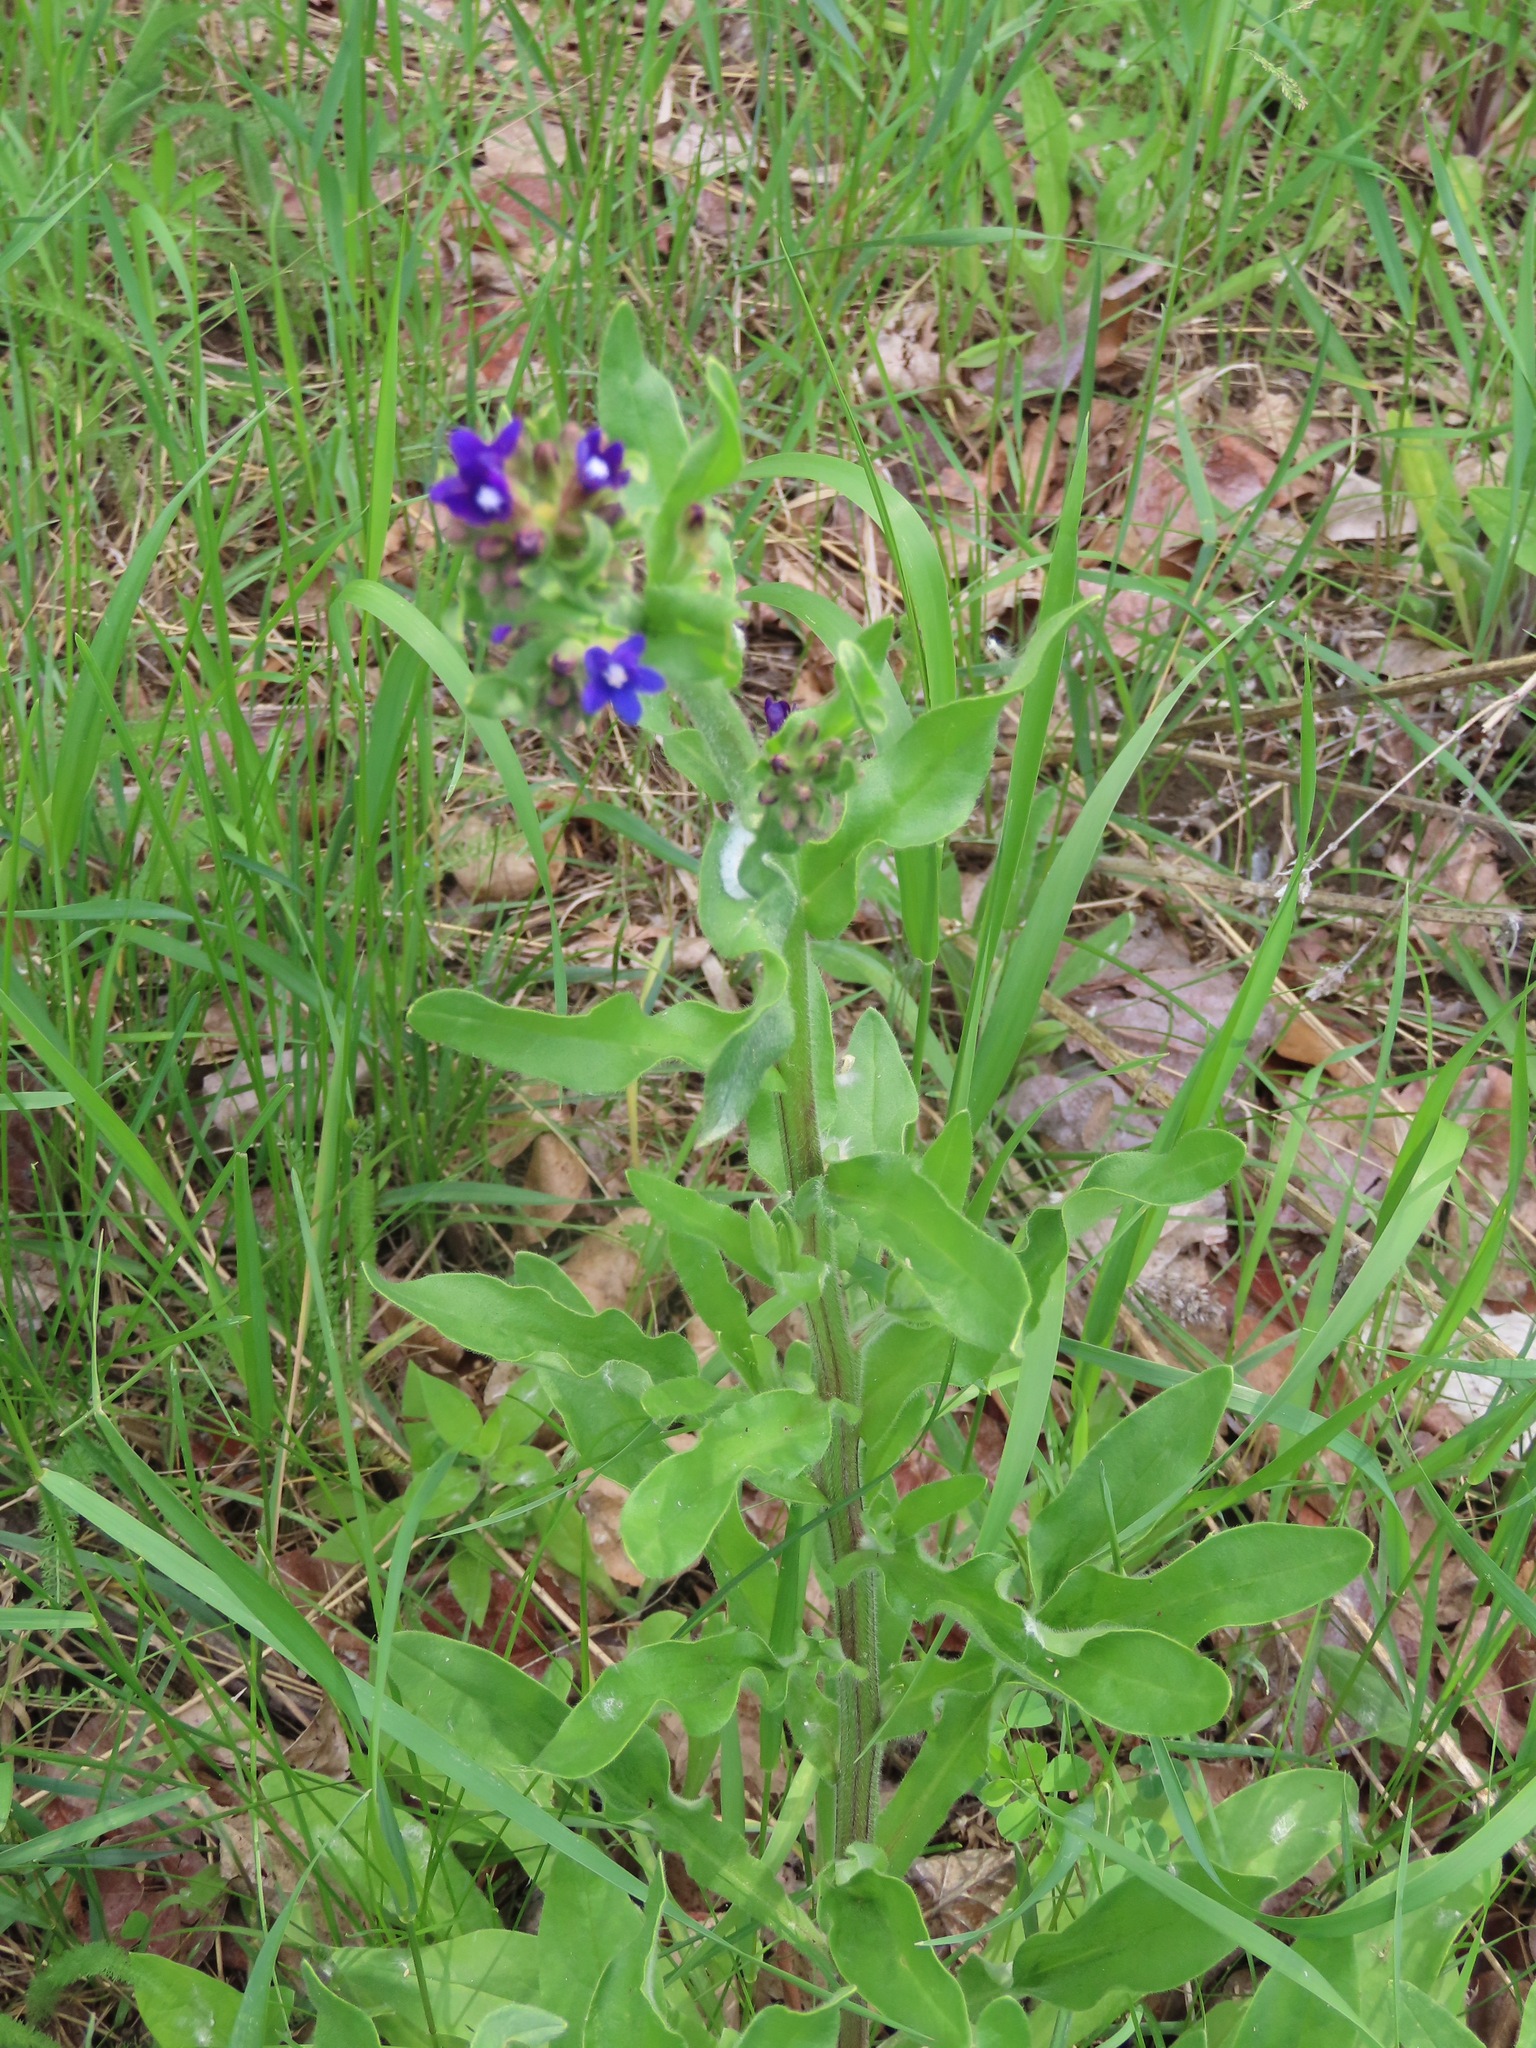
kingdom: Plantae
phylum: Tracheophyta
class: Magnoliopsida
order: Boraginales
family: Boraginaceae
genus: Anchusa
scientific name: Anchusa officinalis
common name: Alkanet
